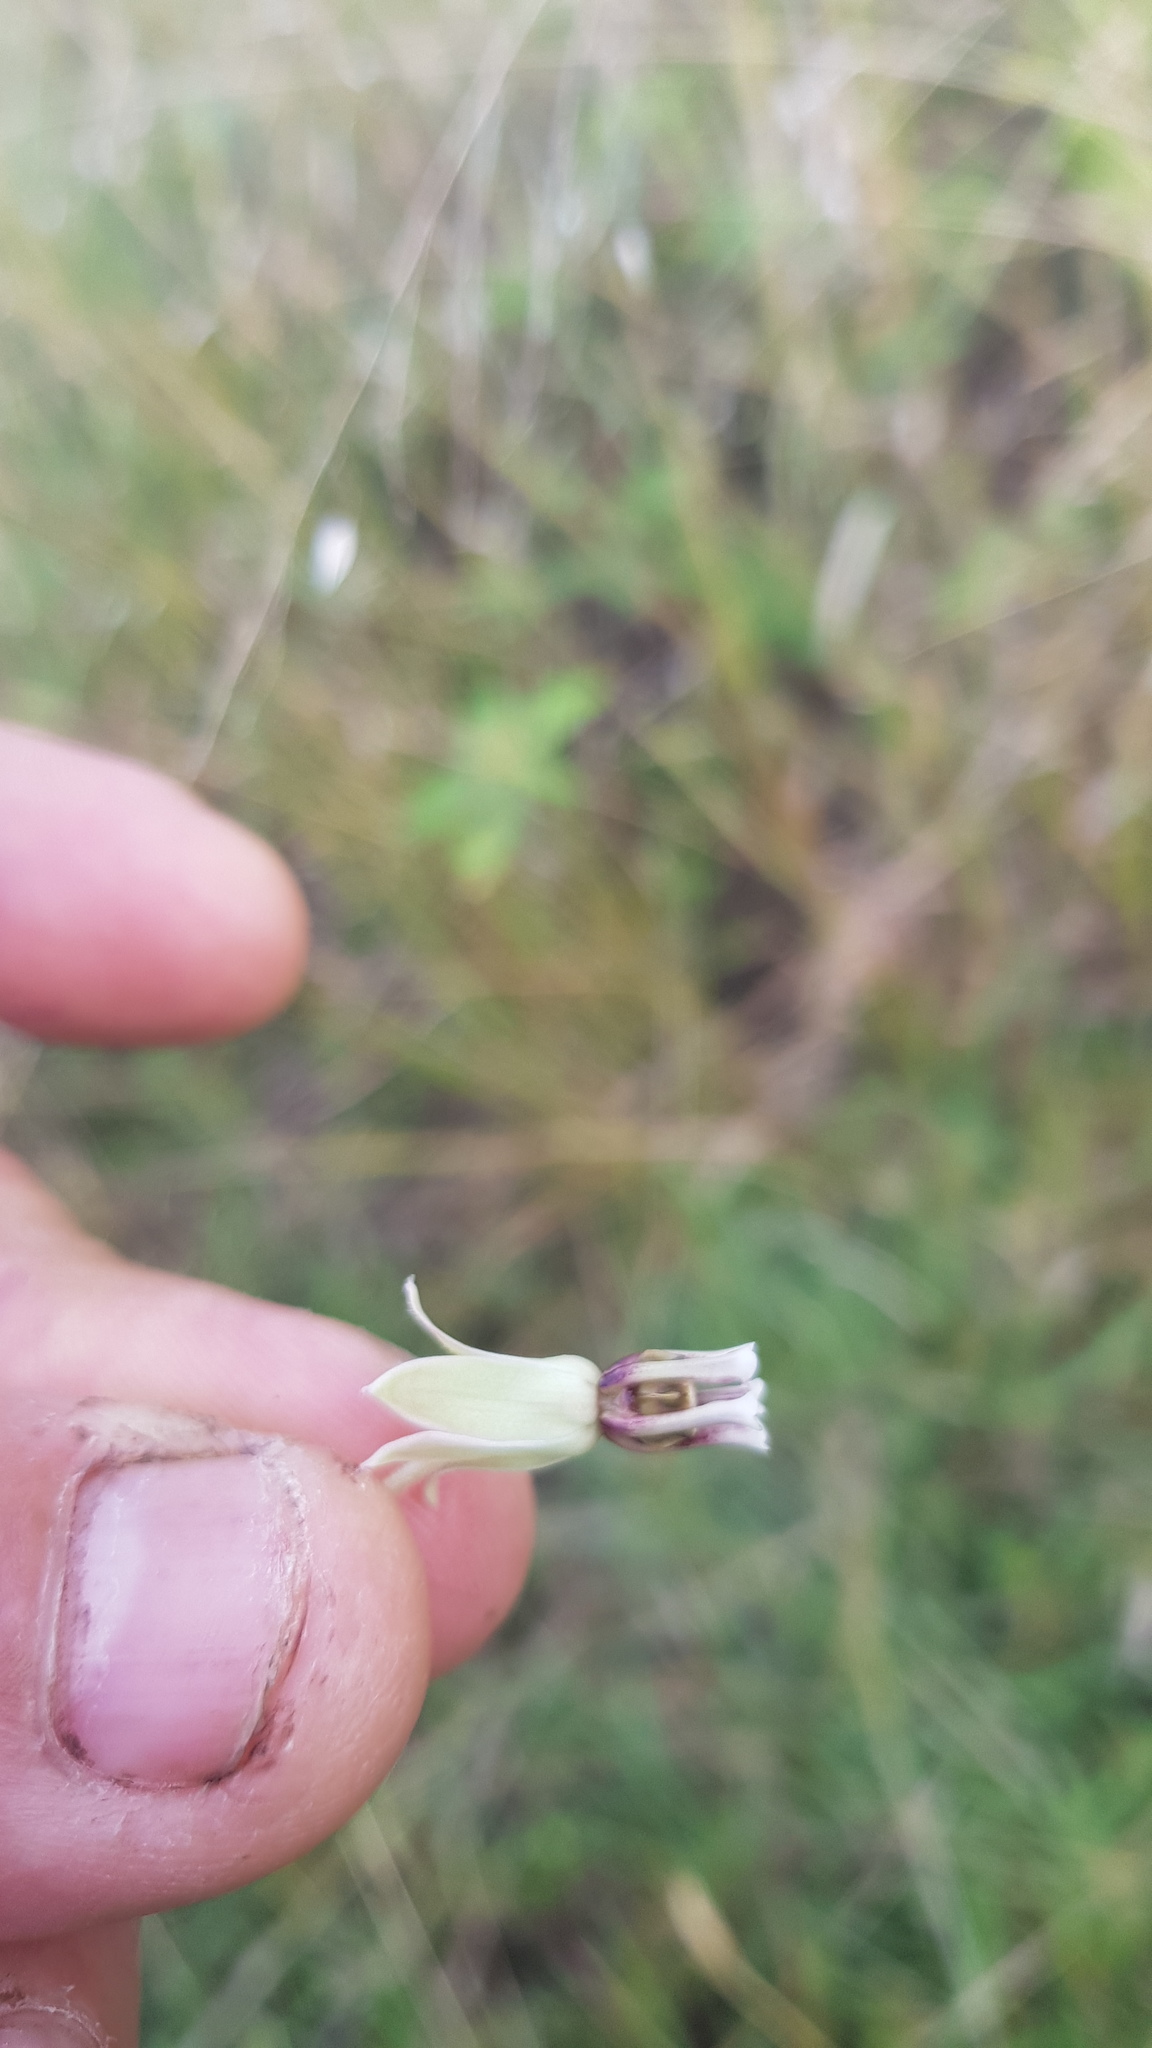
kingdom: Plantae
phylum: Tracheophyta
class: Magnoliopsida
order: Gentianales
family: Apocynaceae
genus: Asclepias
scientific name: Asclepias oenotheroides
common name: Zizotes milkweed
